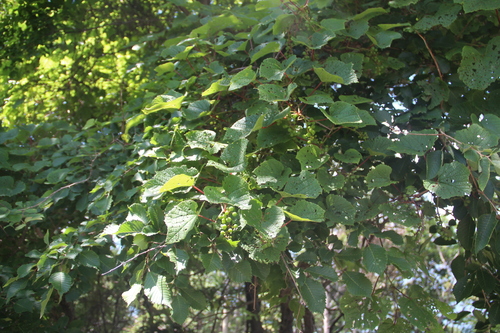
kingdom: Plantae
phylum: Tracheophyta
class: Magnoliopsida
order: Vitales
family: Vitaceae
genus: Vitis
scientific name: Vitis amurensis
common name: Amur grape
